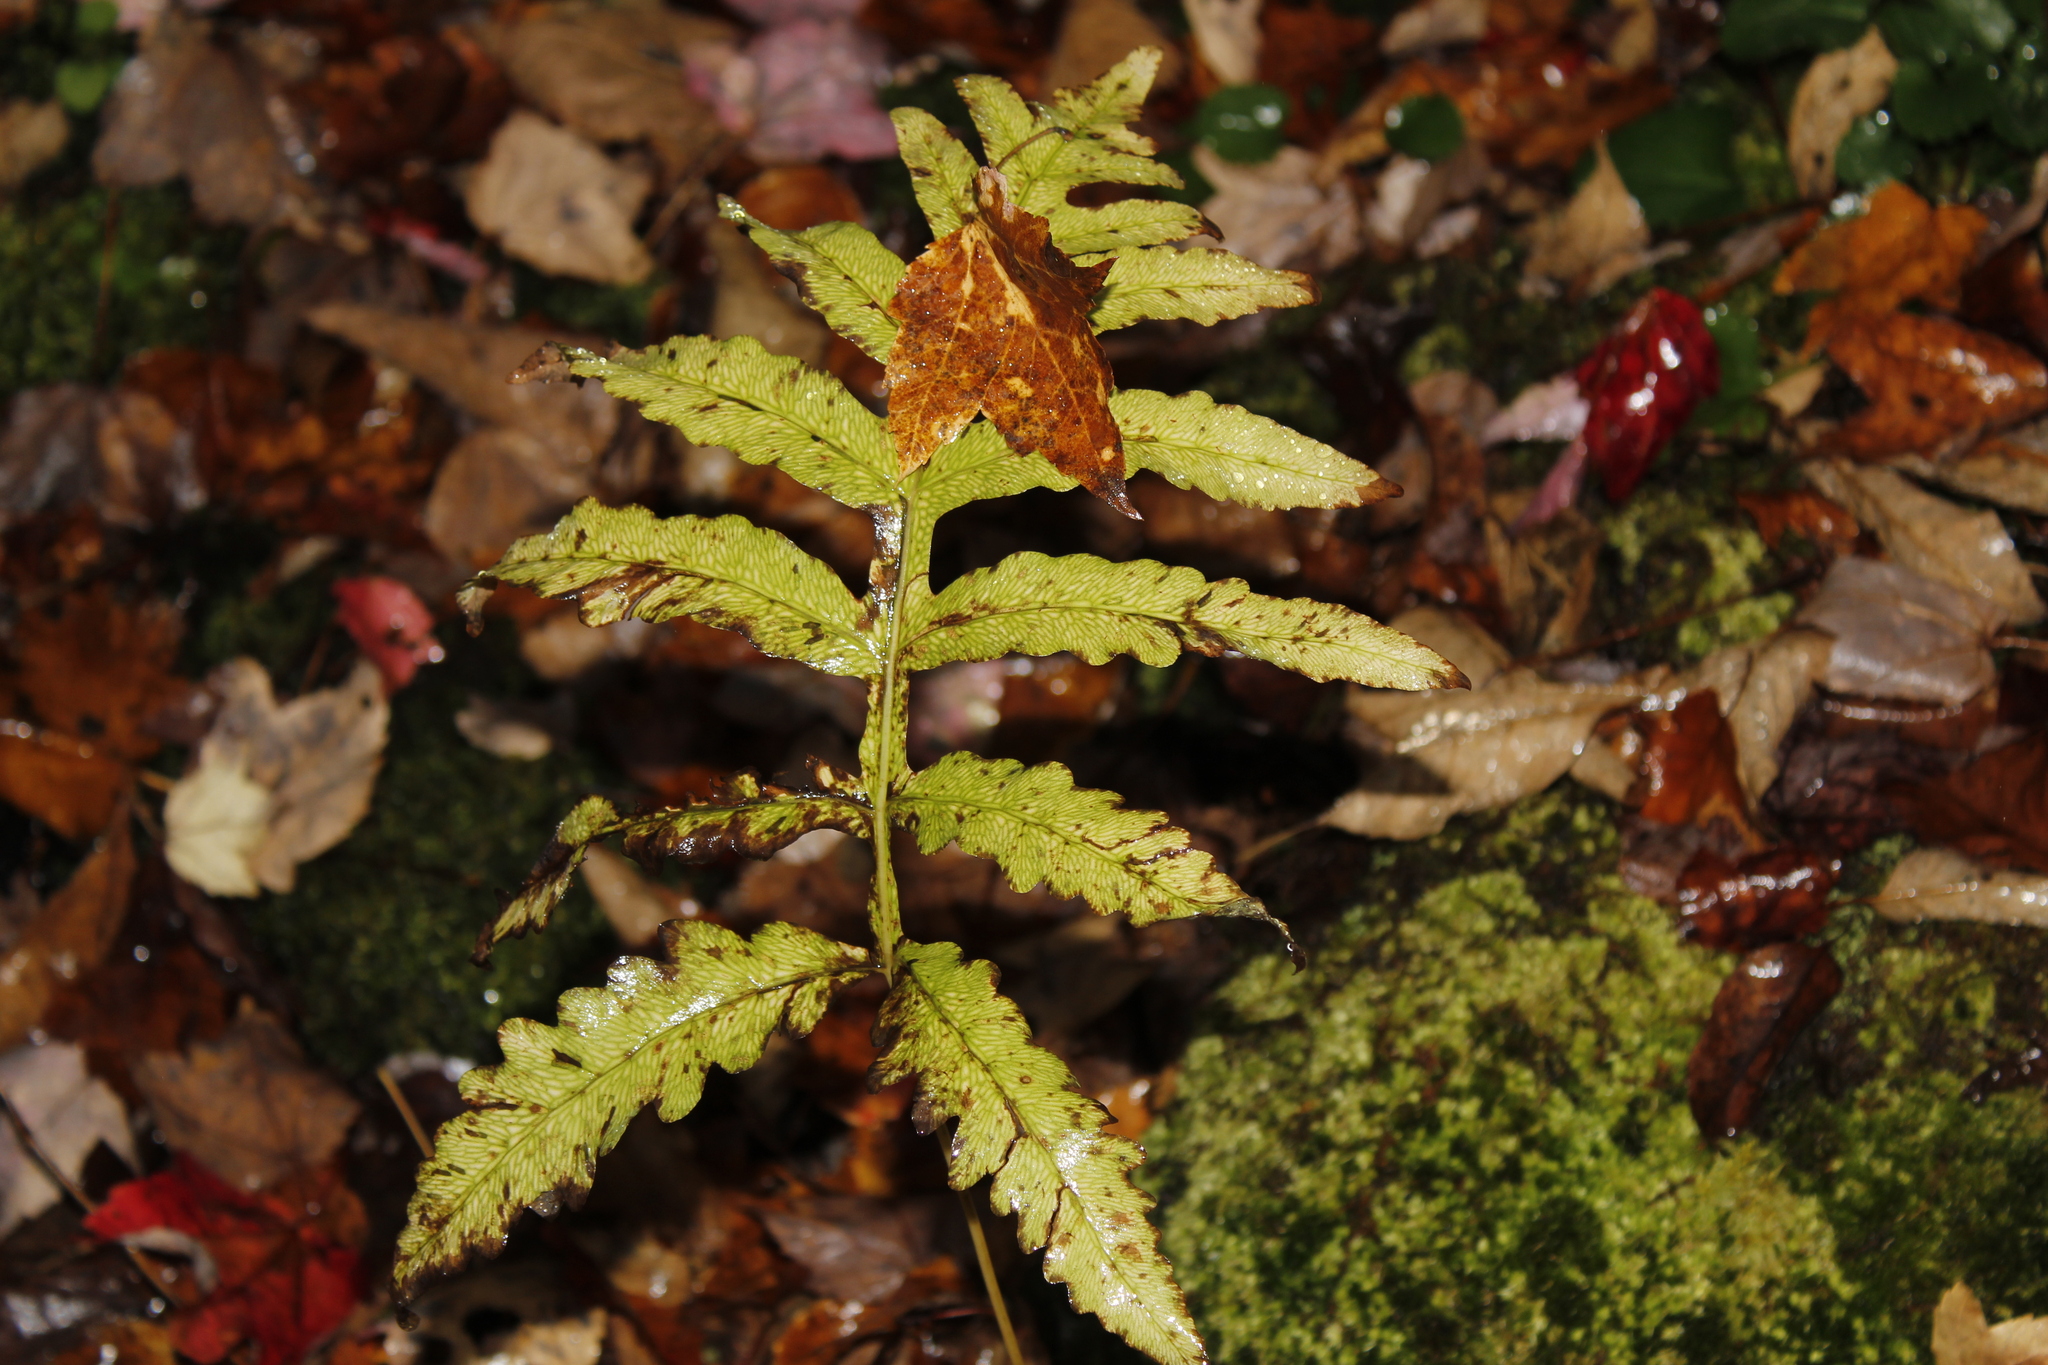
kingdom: Plantae
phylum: Tracheophyta
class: Polypodiopsida
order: Polypodiales
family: Onocleaceae
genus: Onoclea
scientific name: Onoclea sensibilis
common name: Sensitive fern
